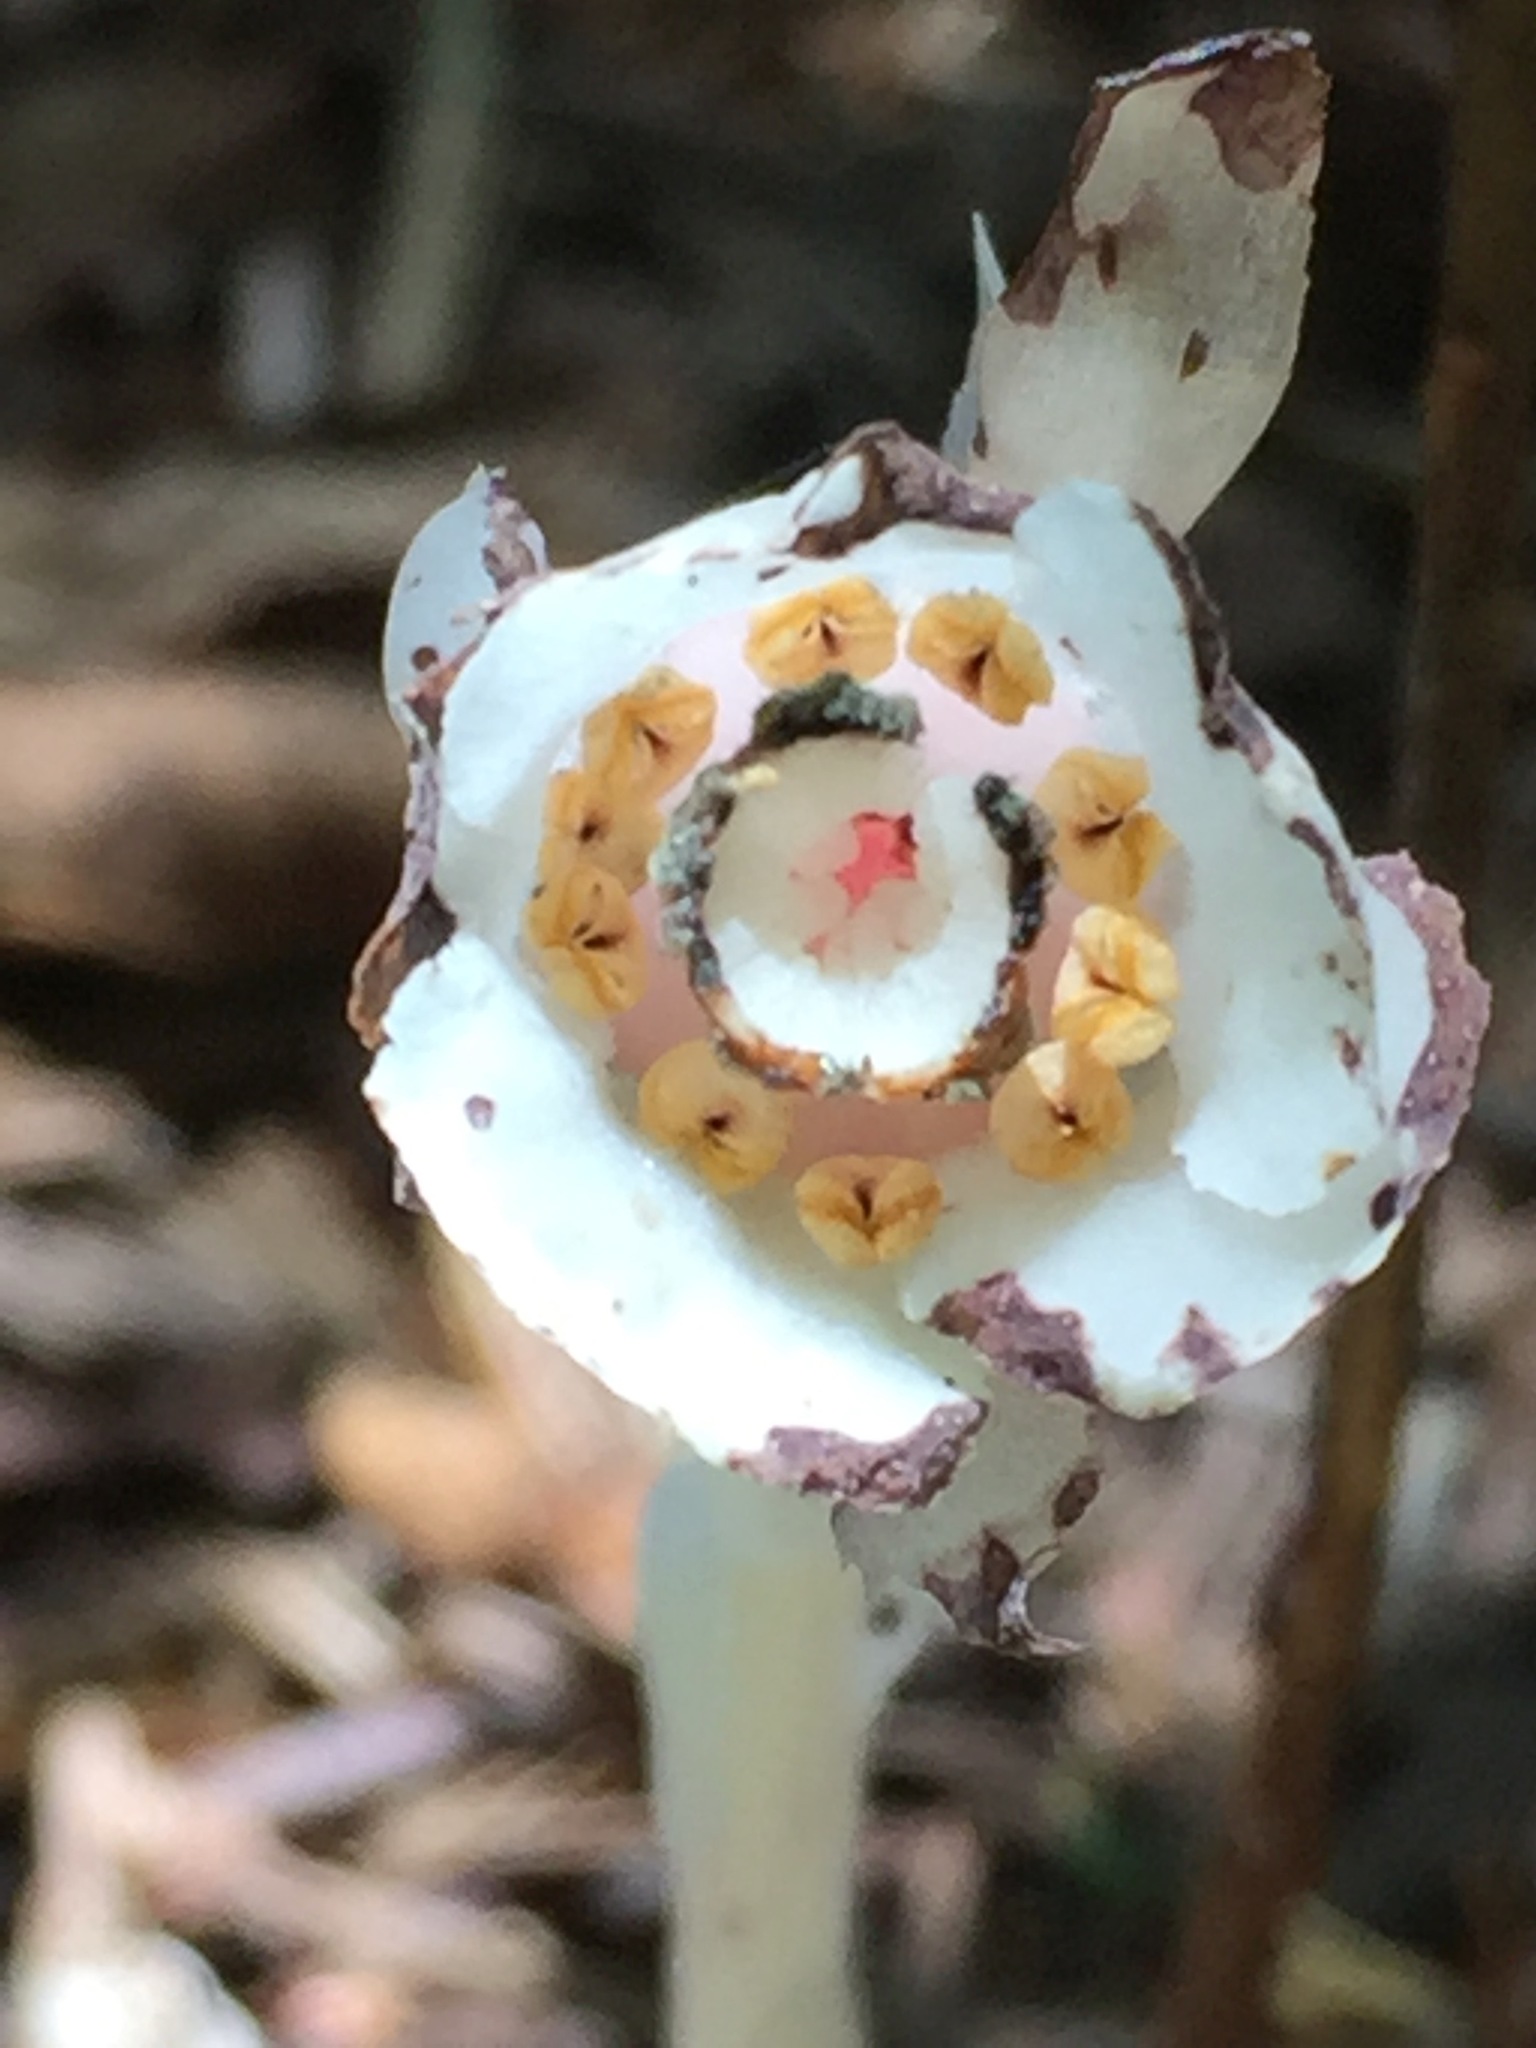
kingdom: Plantae
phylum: Tracheophyta
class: Magnoliopsida
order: Ericales
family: Ericaceae
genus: Monotropa
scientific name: Monotropa uniflora
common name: Convulsion root
